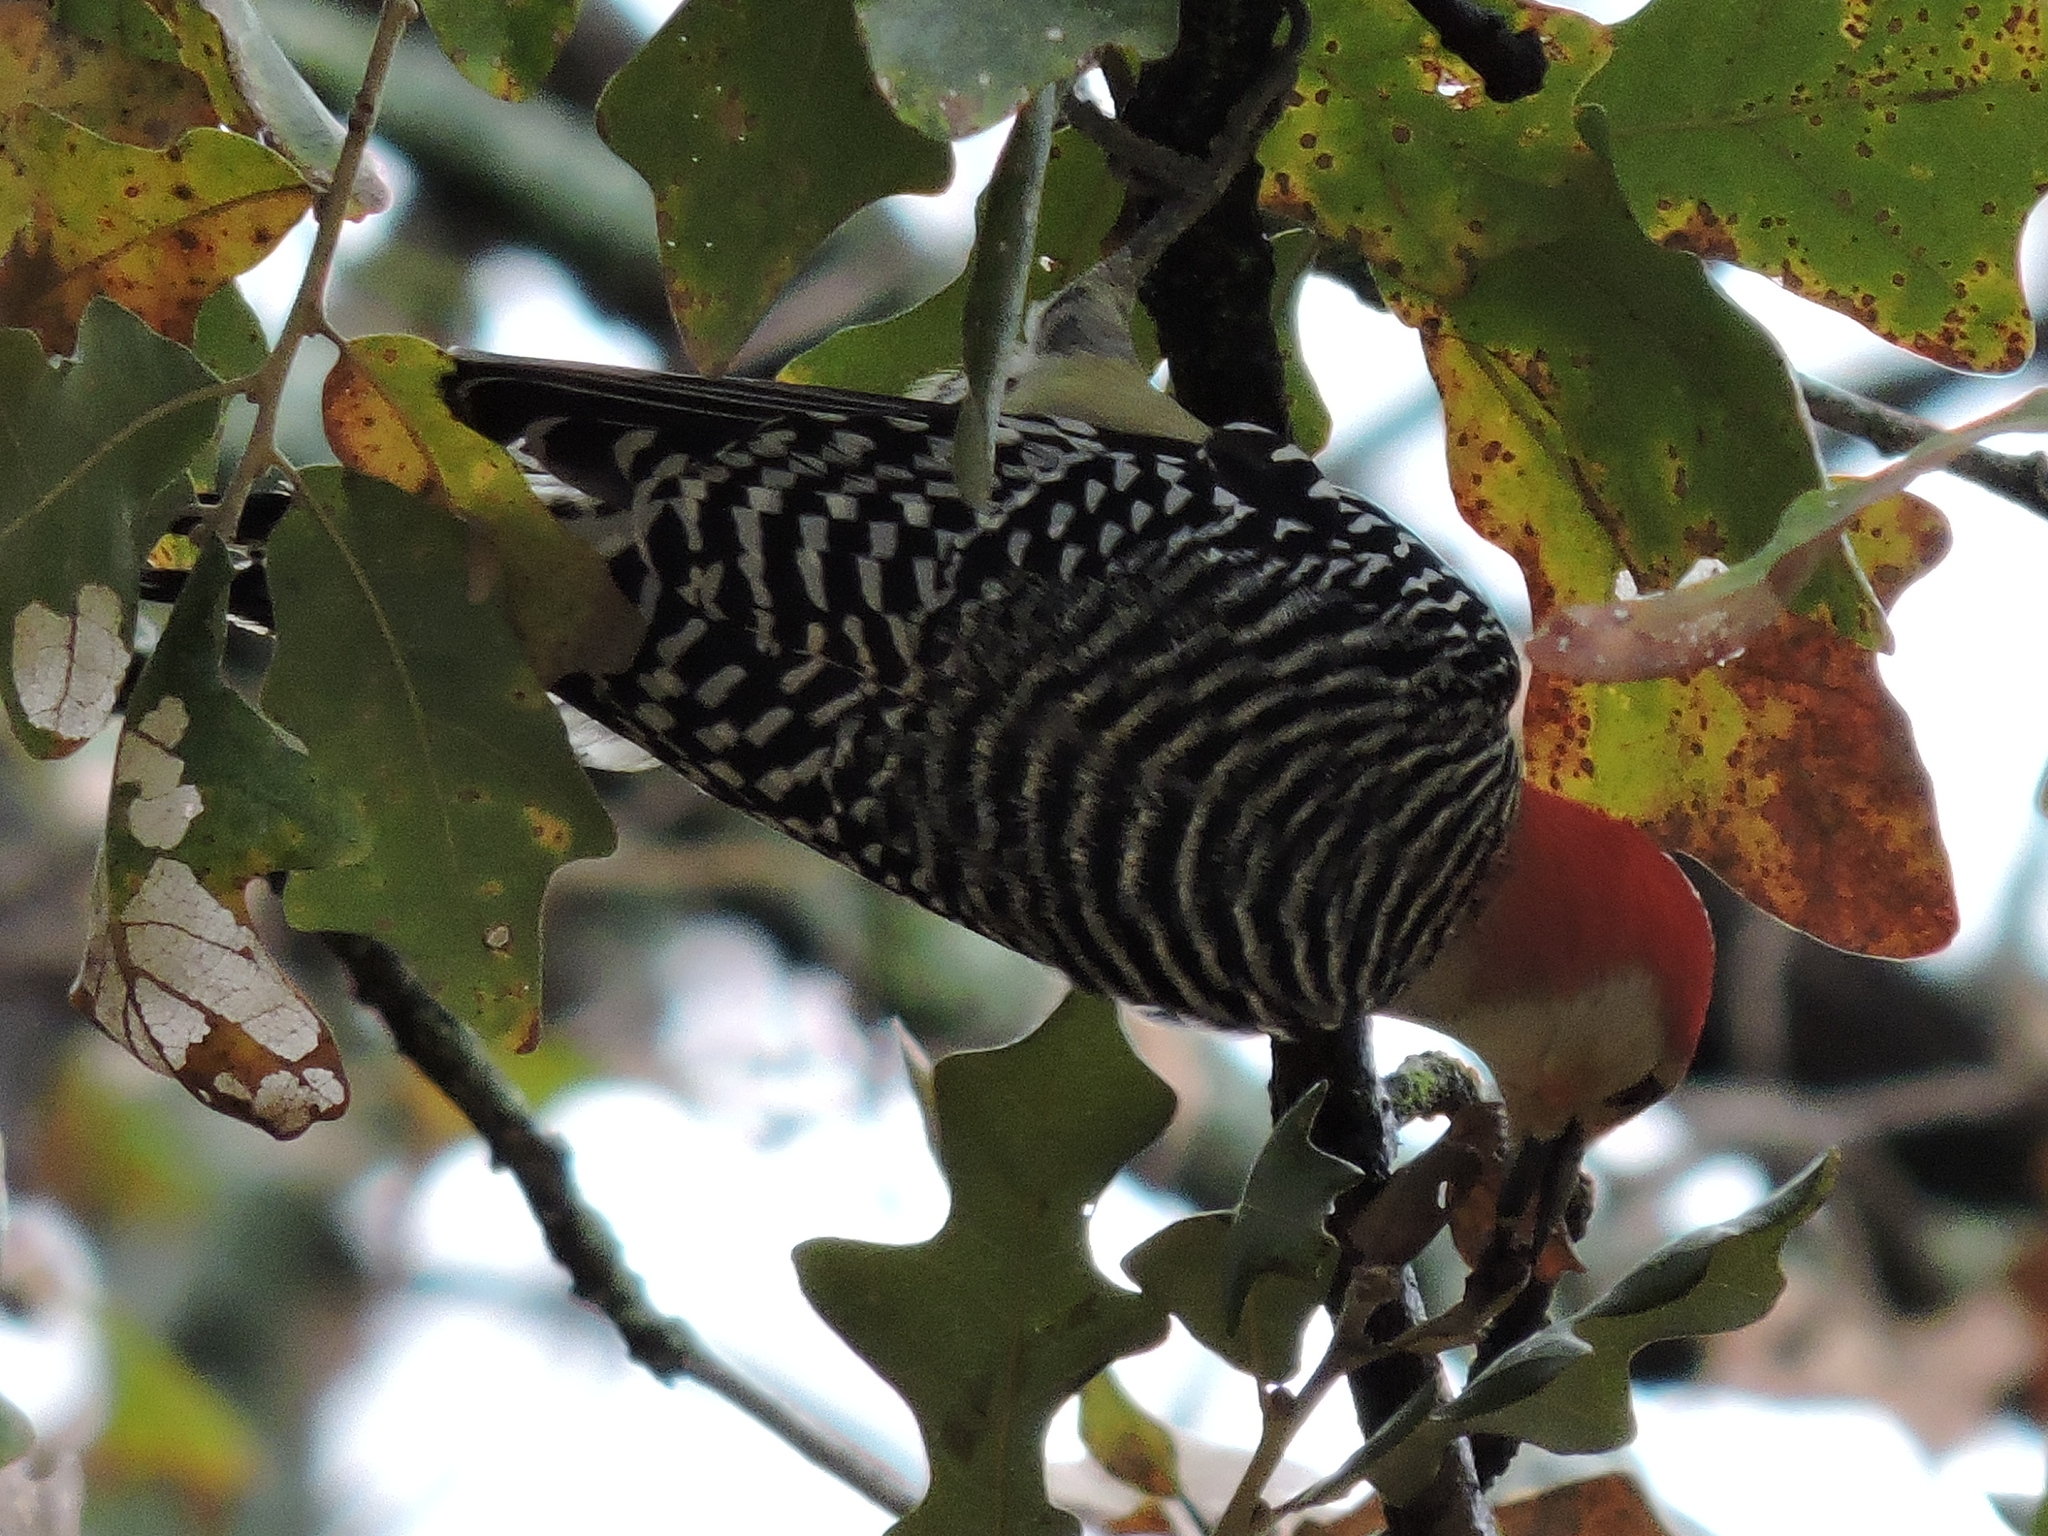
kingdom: Animalia
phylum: Chordata
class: Aves
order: Piciformes
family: Picidae
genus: Melanerpes
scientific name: Melanerpes carolinus
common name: Red-bellied woodpecker
